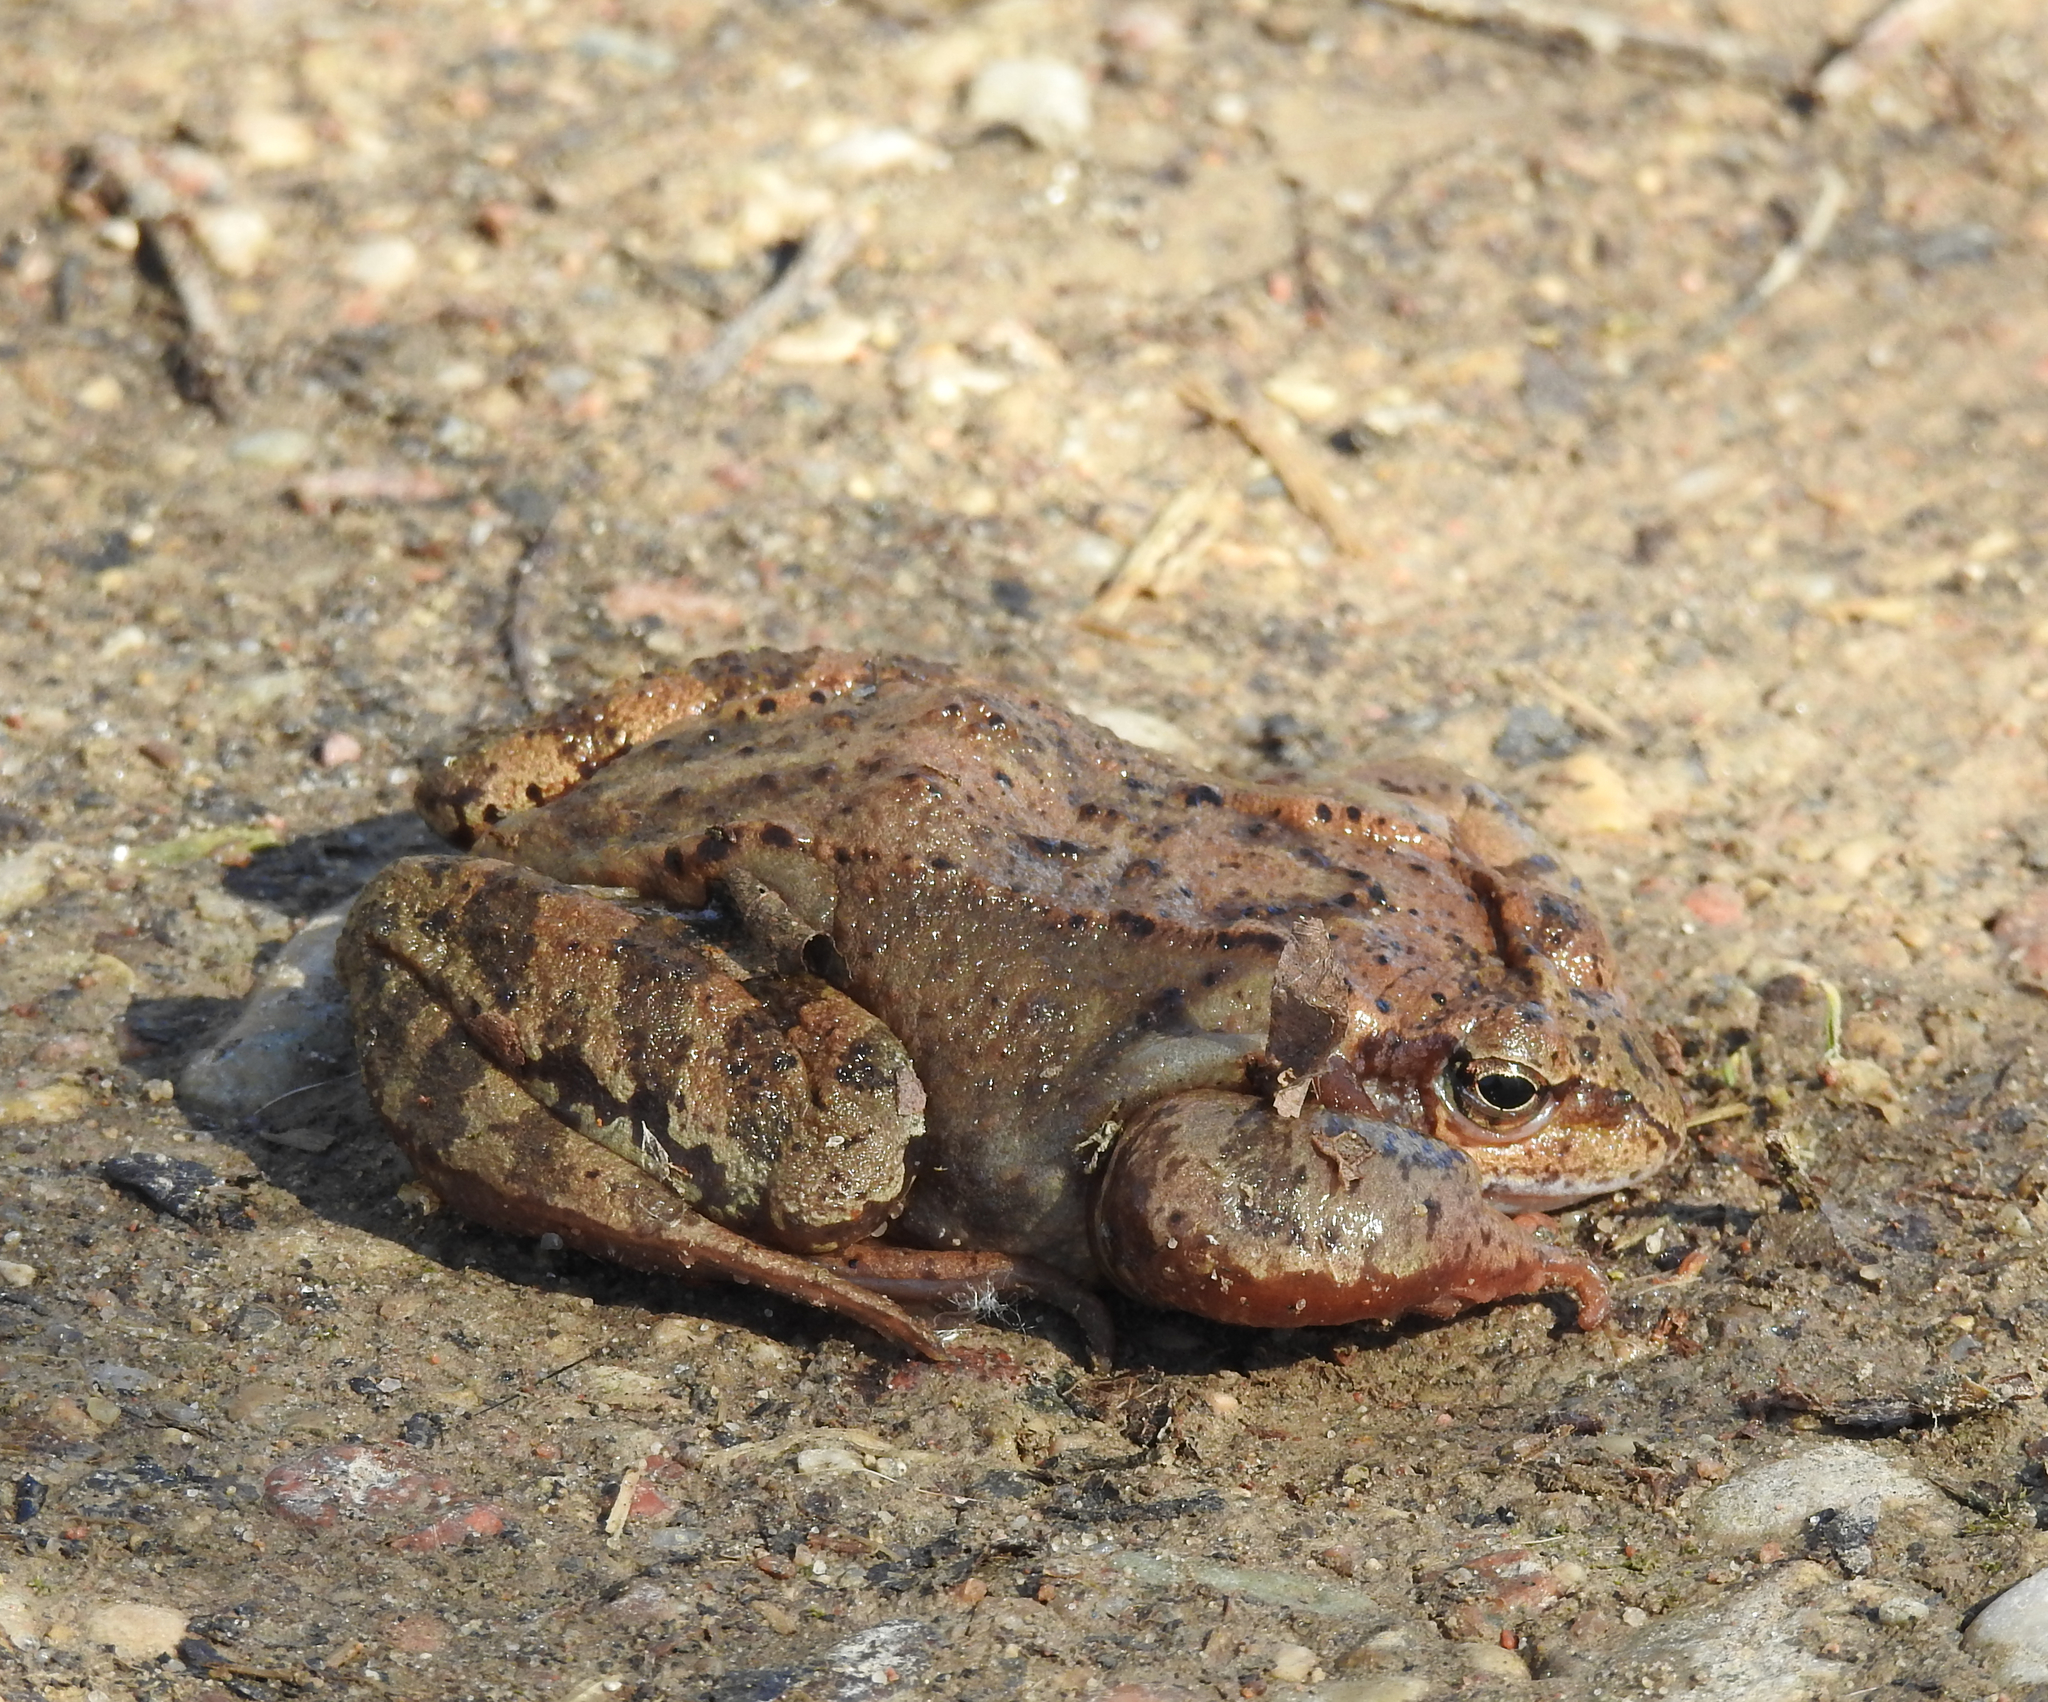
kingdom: Animalia
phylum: Chordata
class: Amphibia
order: Anura
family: Ranidae
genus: Rana
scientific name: Rana temporaria
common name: Common frog
